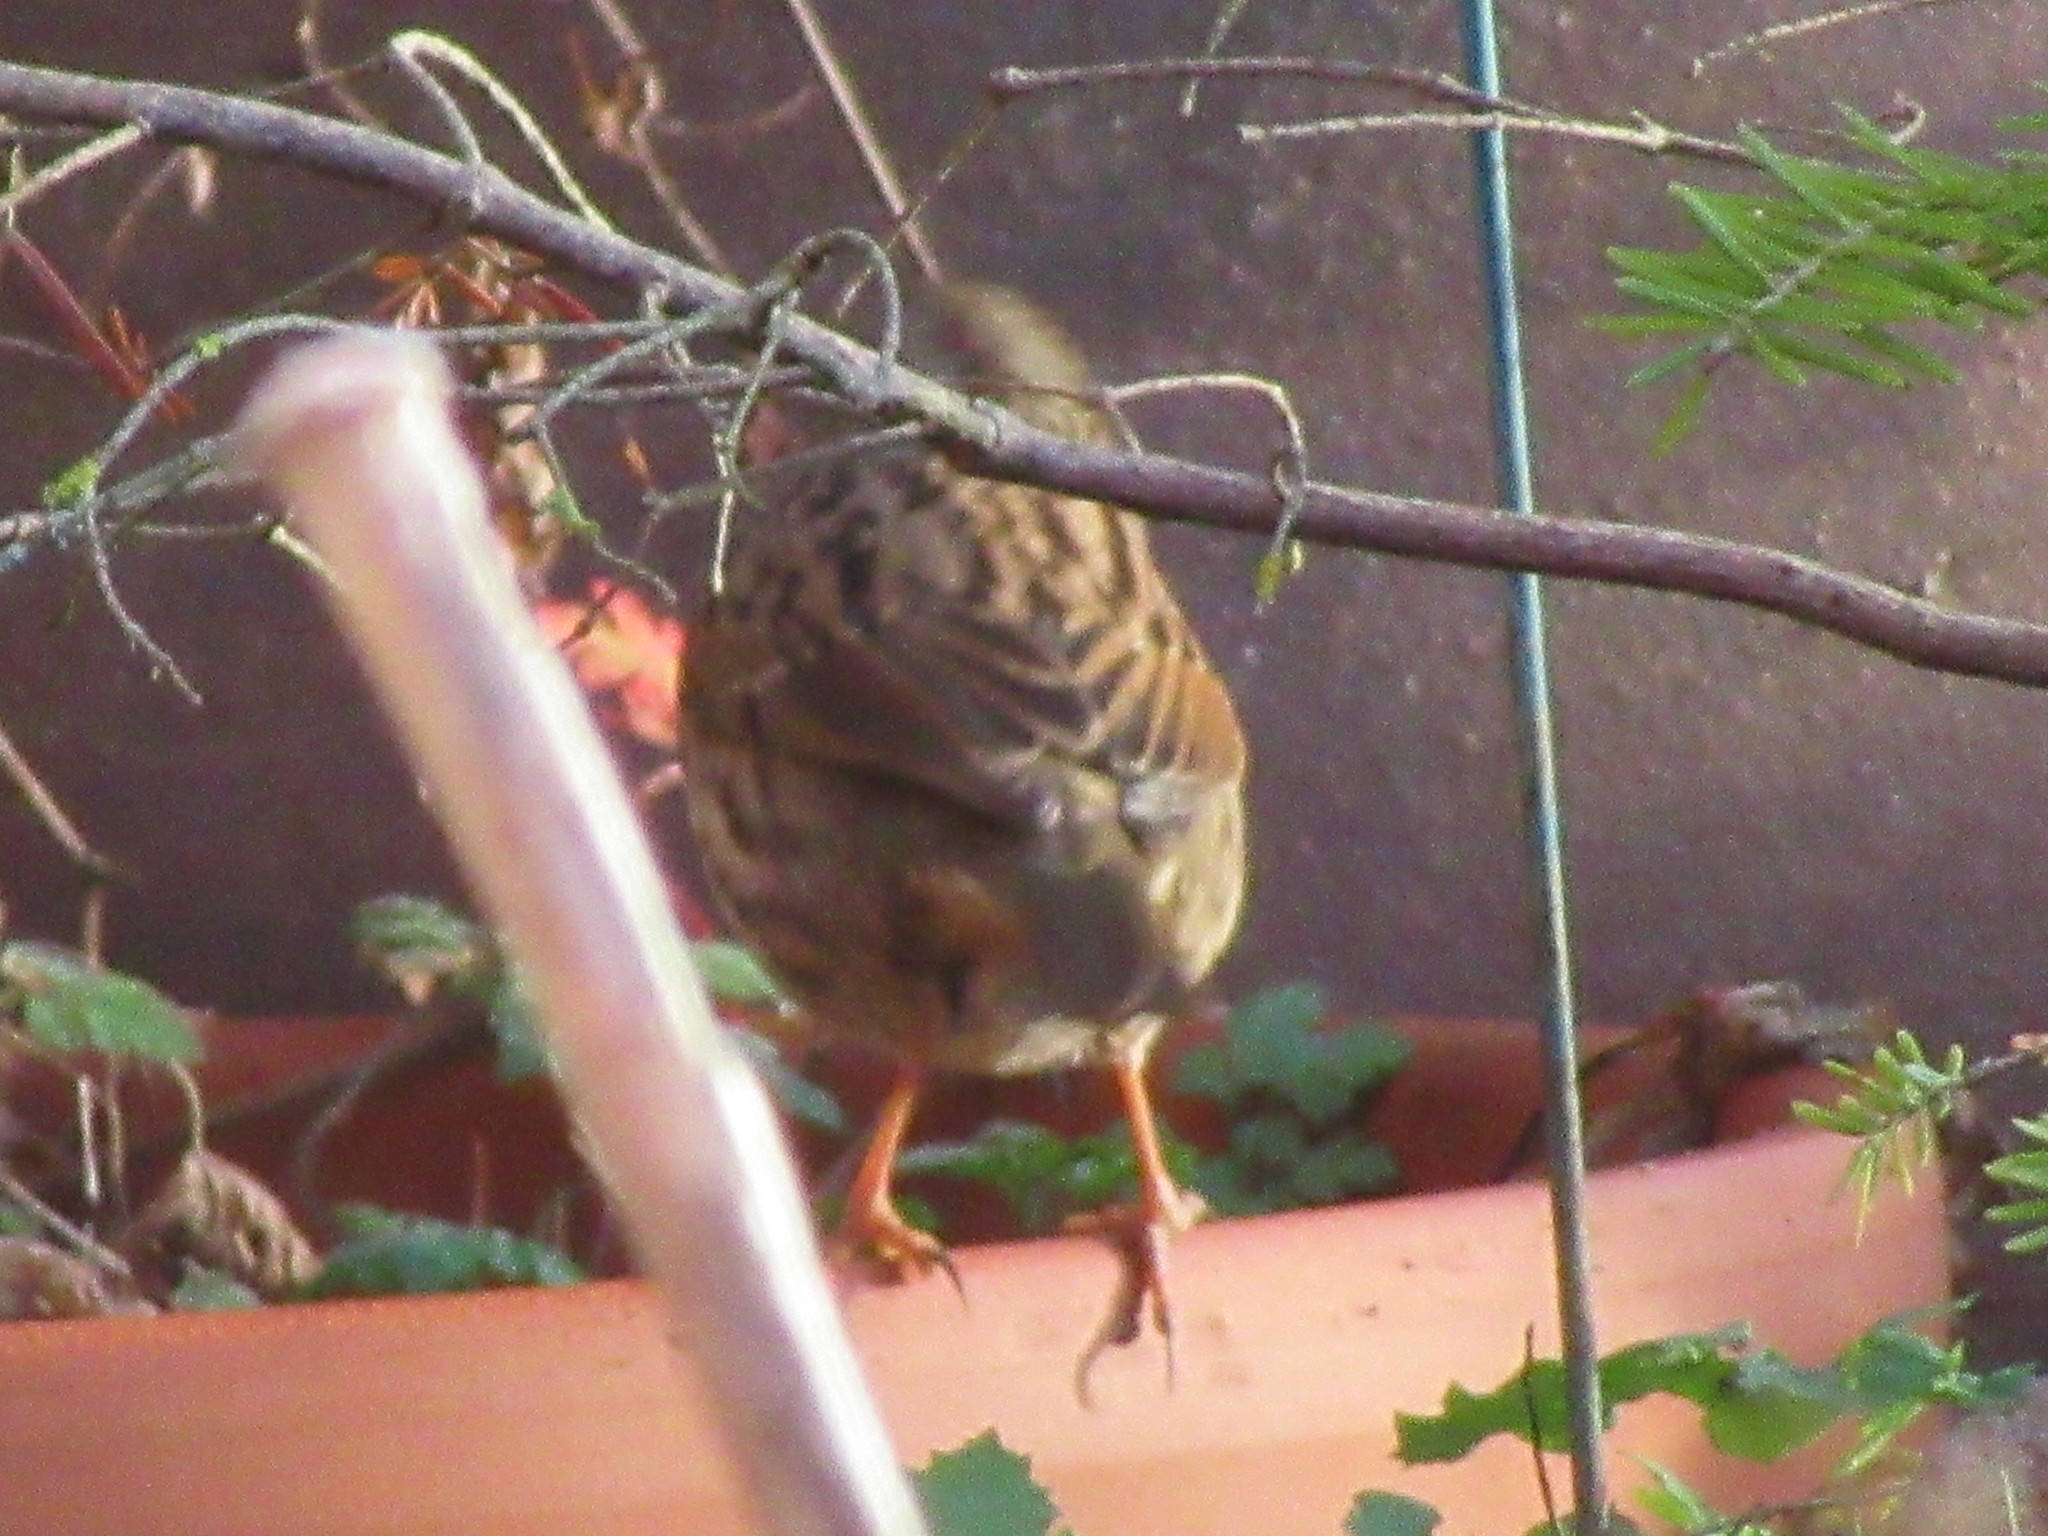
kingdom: Animalia
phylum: Chordata
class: Aves
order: Passeriformes
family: Prunellidae
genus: Prunella
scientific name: Prunella modularis
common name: Dunnock
